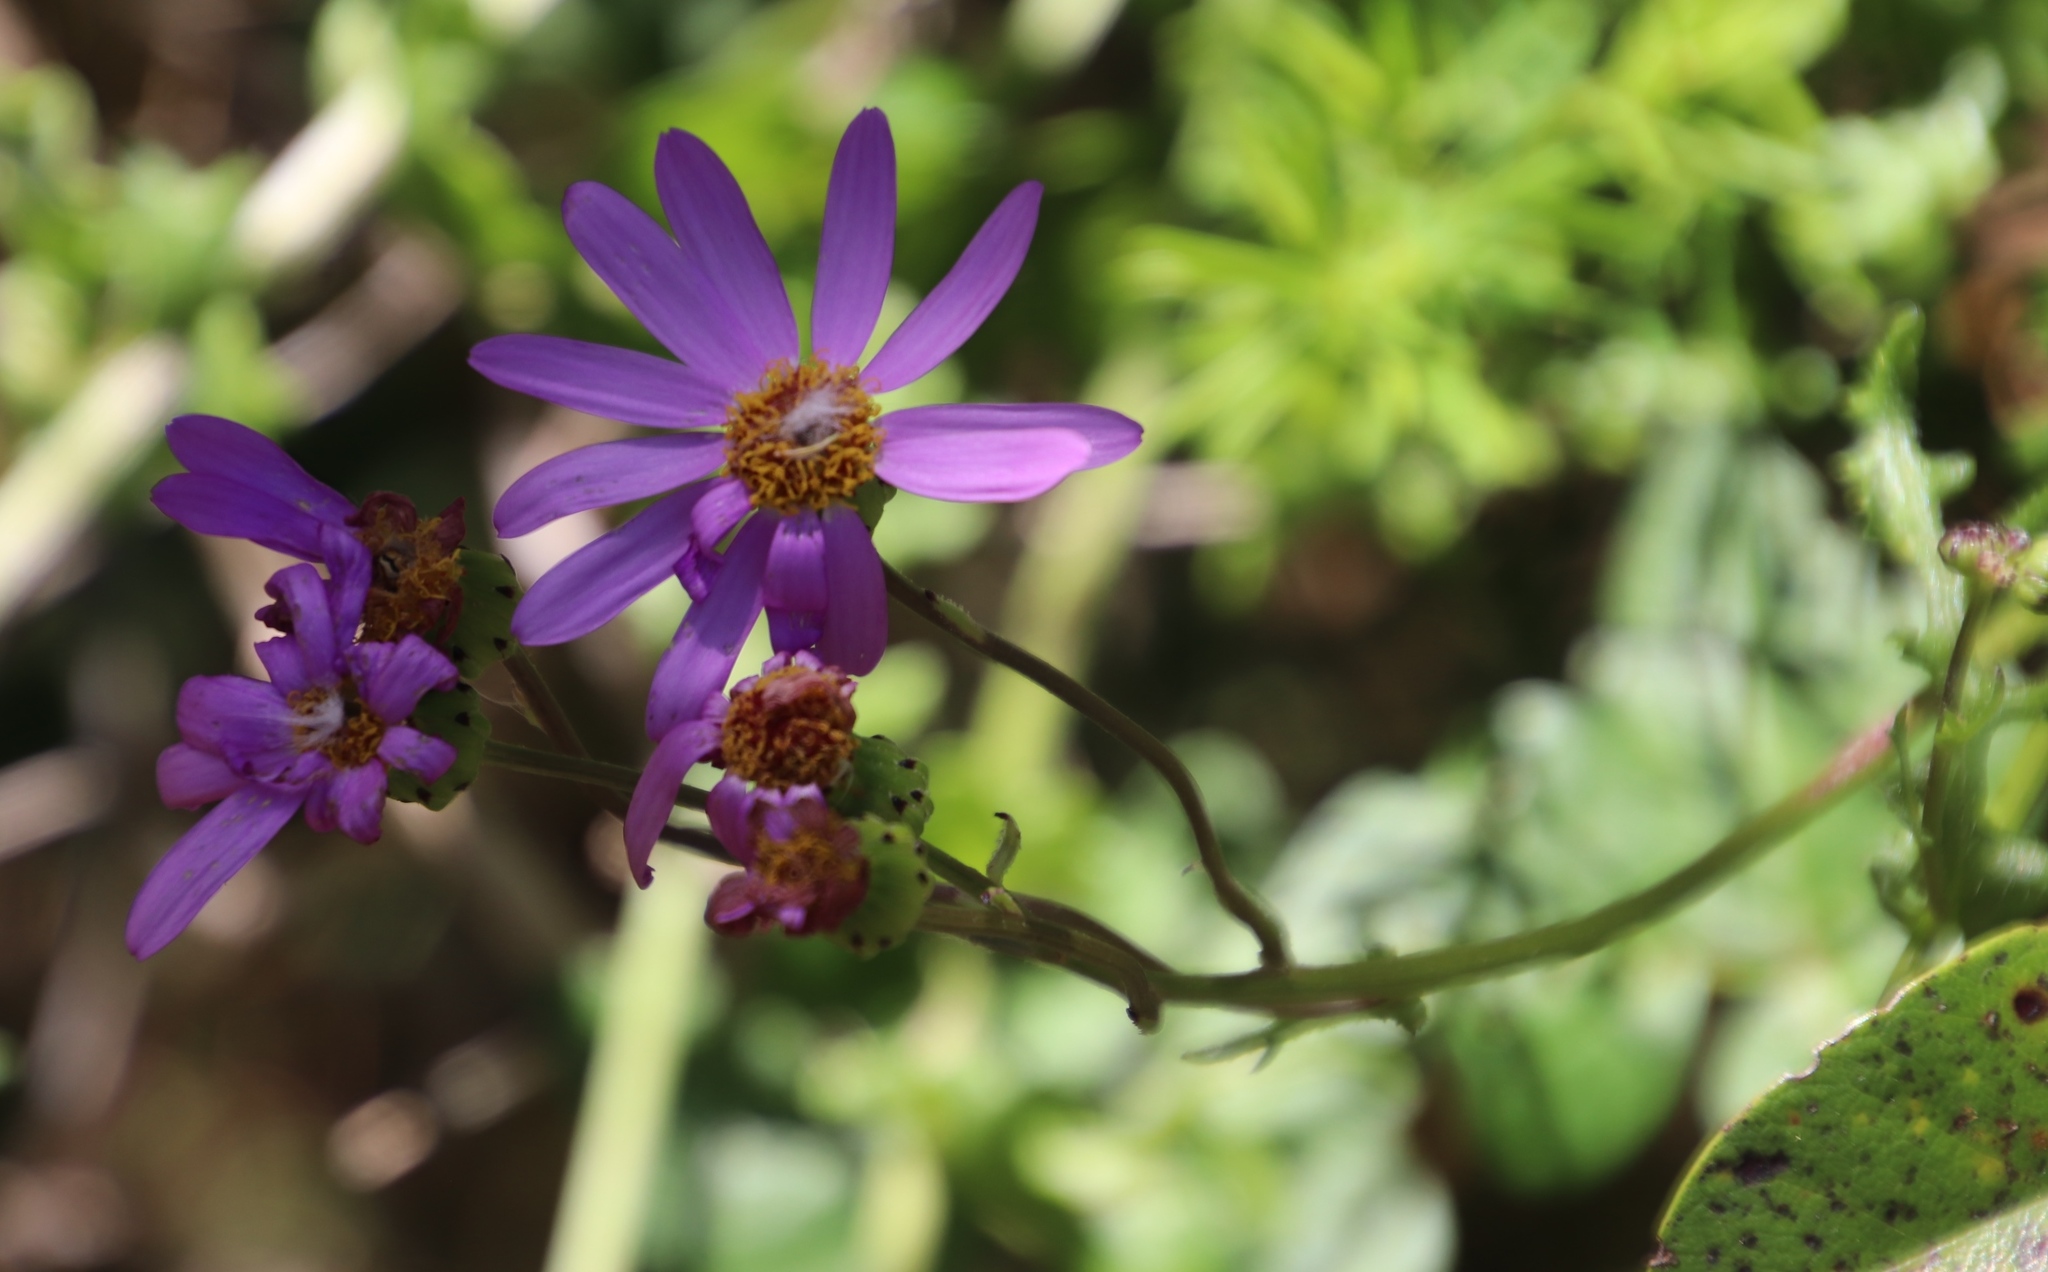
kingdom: Plantae
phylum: Tracheophyta
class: Magnoliopsida
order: Asterales
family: Asteraceae
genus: Senecio
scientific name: Senecio elegans
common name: Purple groundsel
